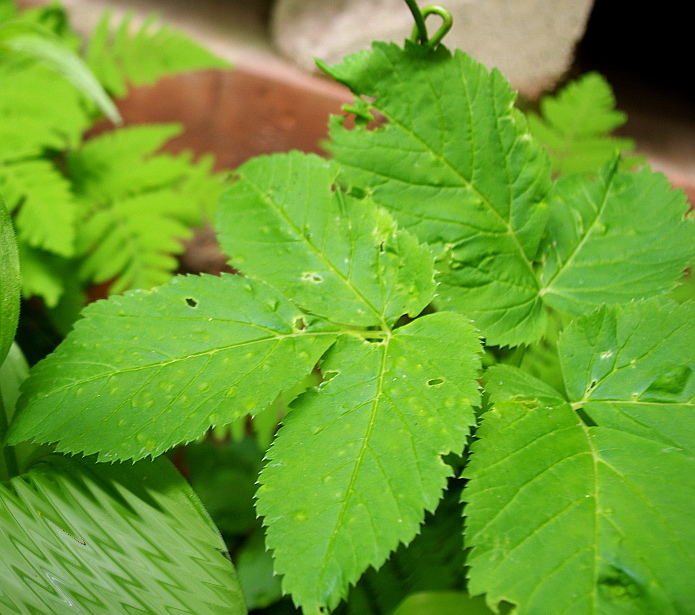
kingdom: Plantae
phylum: Tracheophyta
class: Magnoliopsida
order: Apiales
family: Apiaceae
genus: Aegopodium
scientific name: Aegopodium podagraria
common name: Ground-elder
